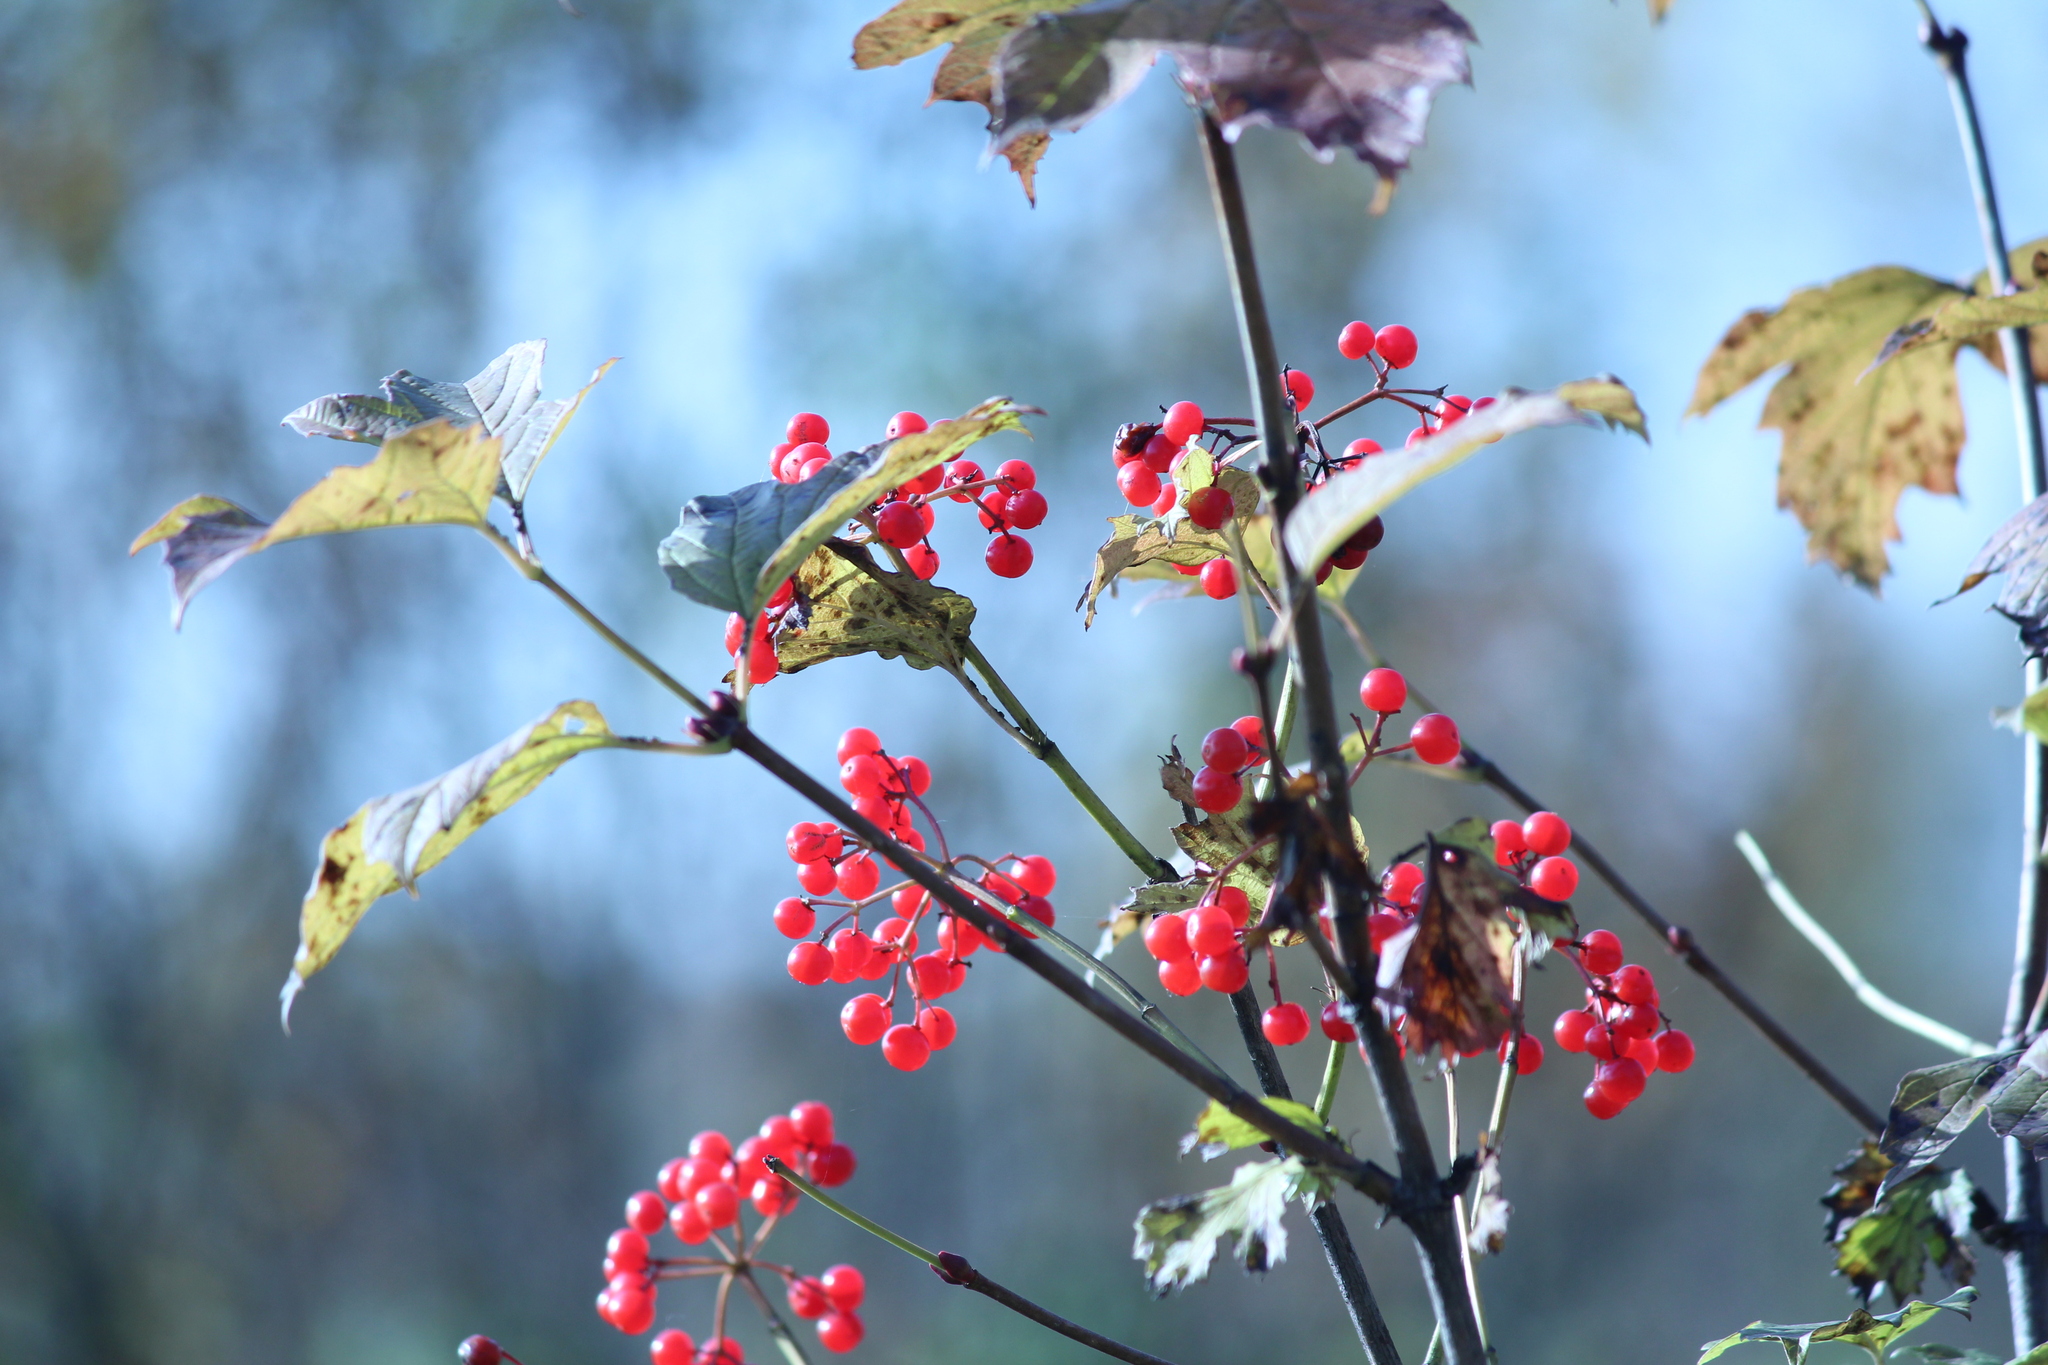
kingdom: Plantae
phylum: Tracheophyta
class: Magnoliopsida
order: Dipsacales
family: Viburnaceae
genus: Viburnum
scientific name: Viburnum opulus
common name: Guelder-rose
